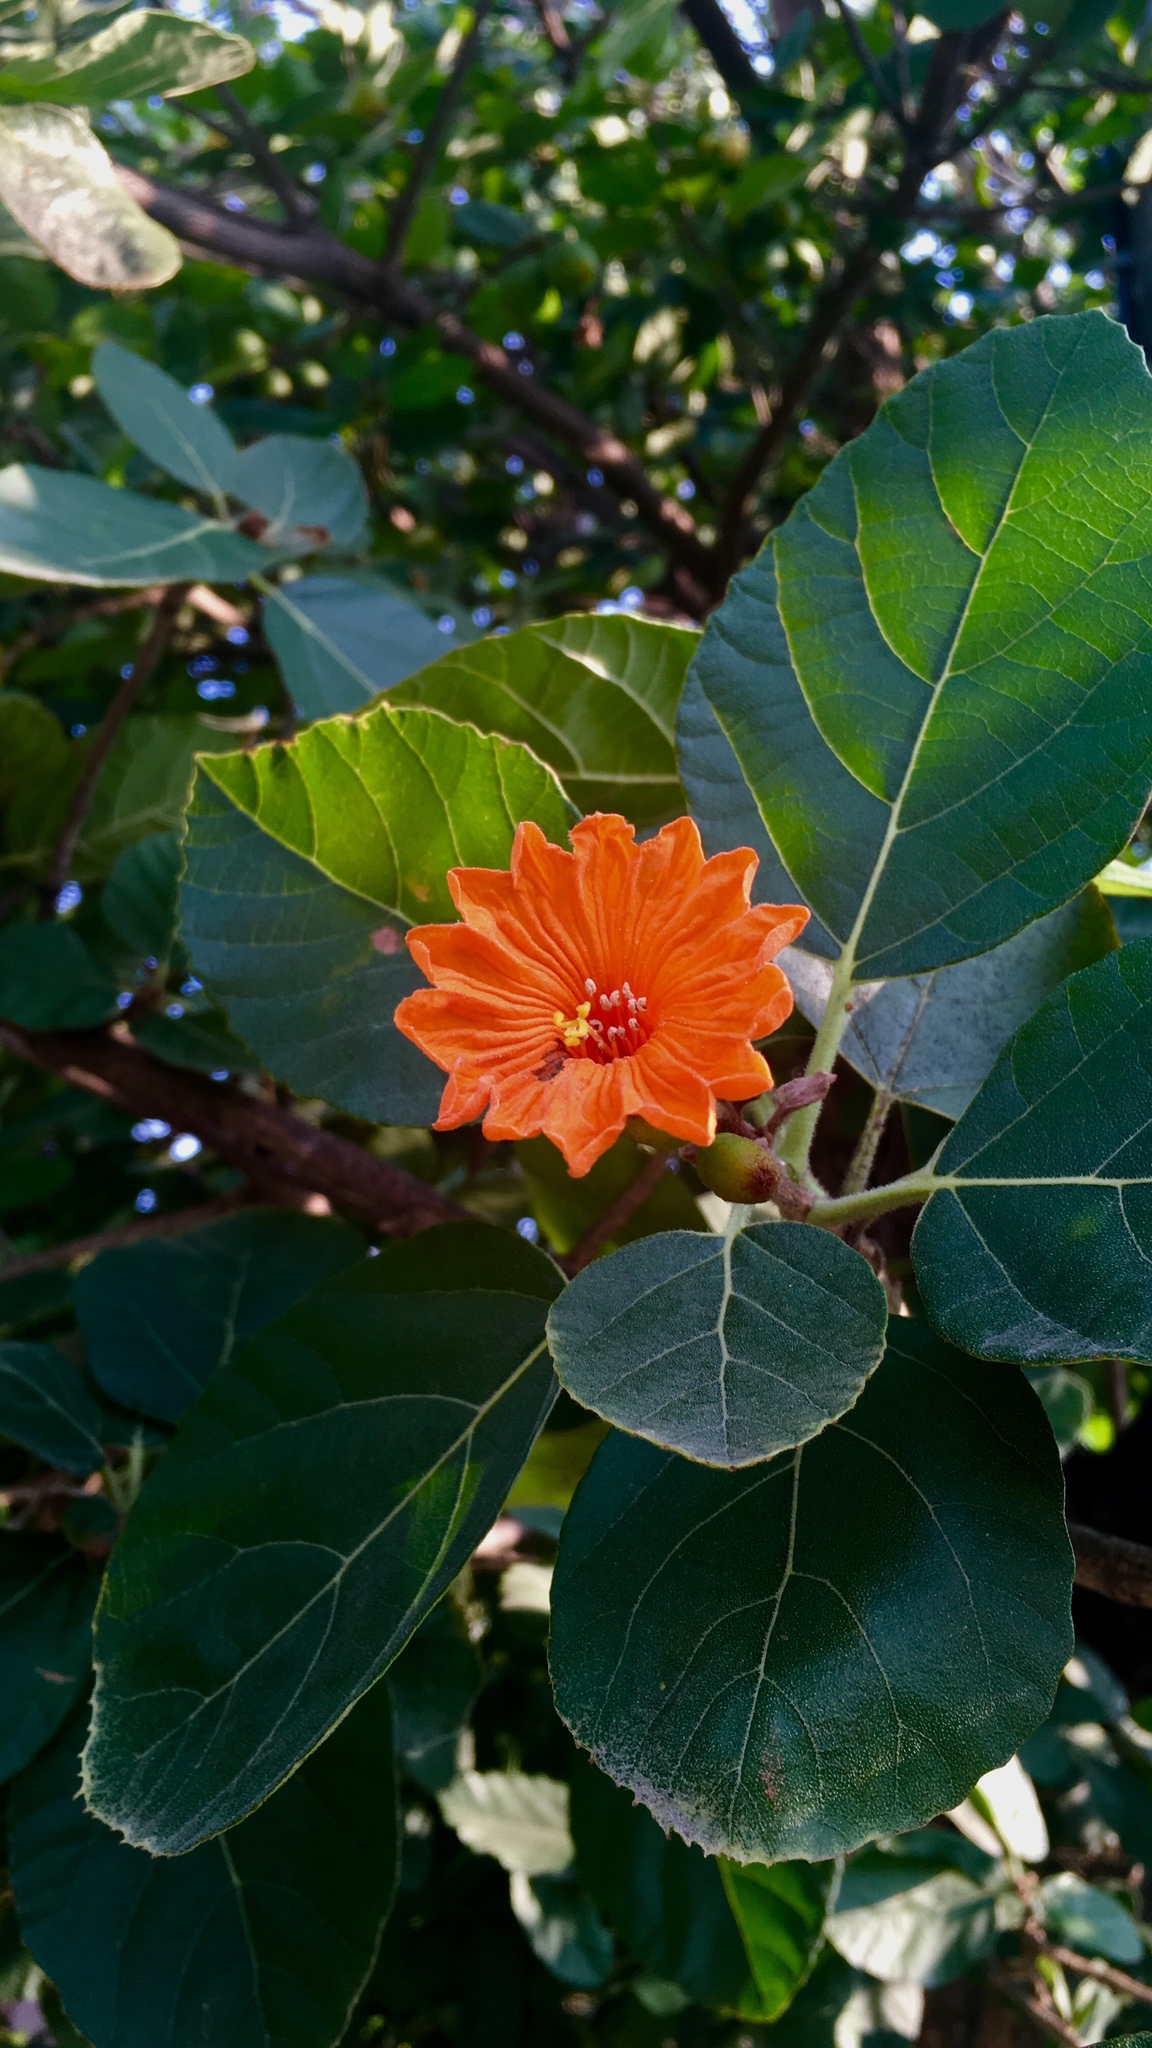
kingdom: Plantae
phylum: Tracheophyta
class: Magnoliopsida
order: Boraginales
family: Cordiaceae
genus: Cordia
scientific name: Cordia dodecandra
